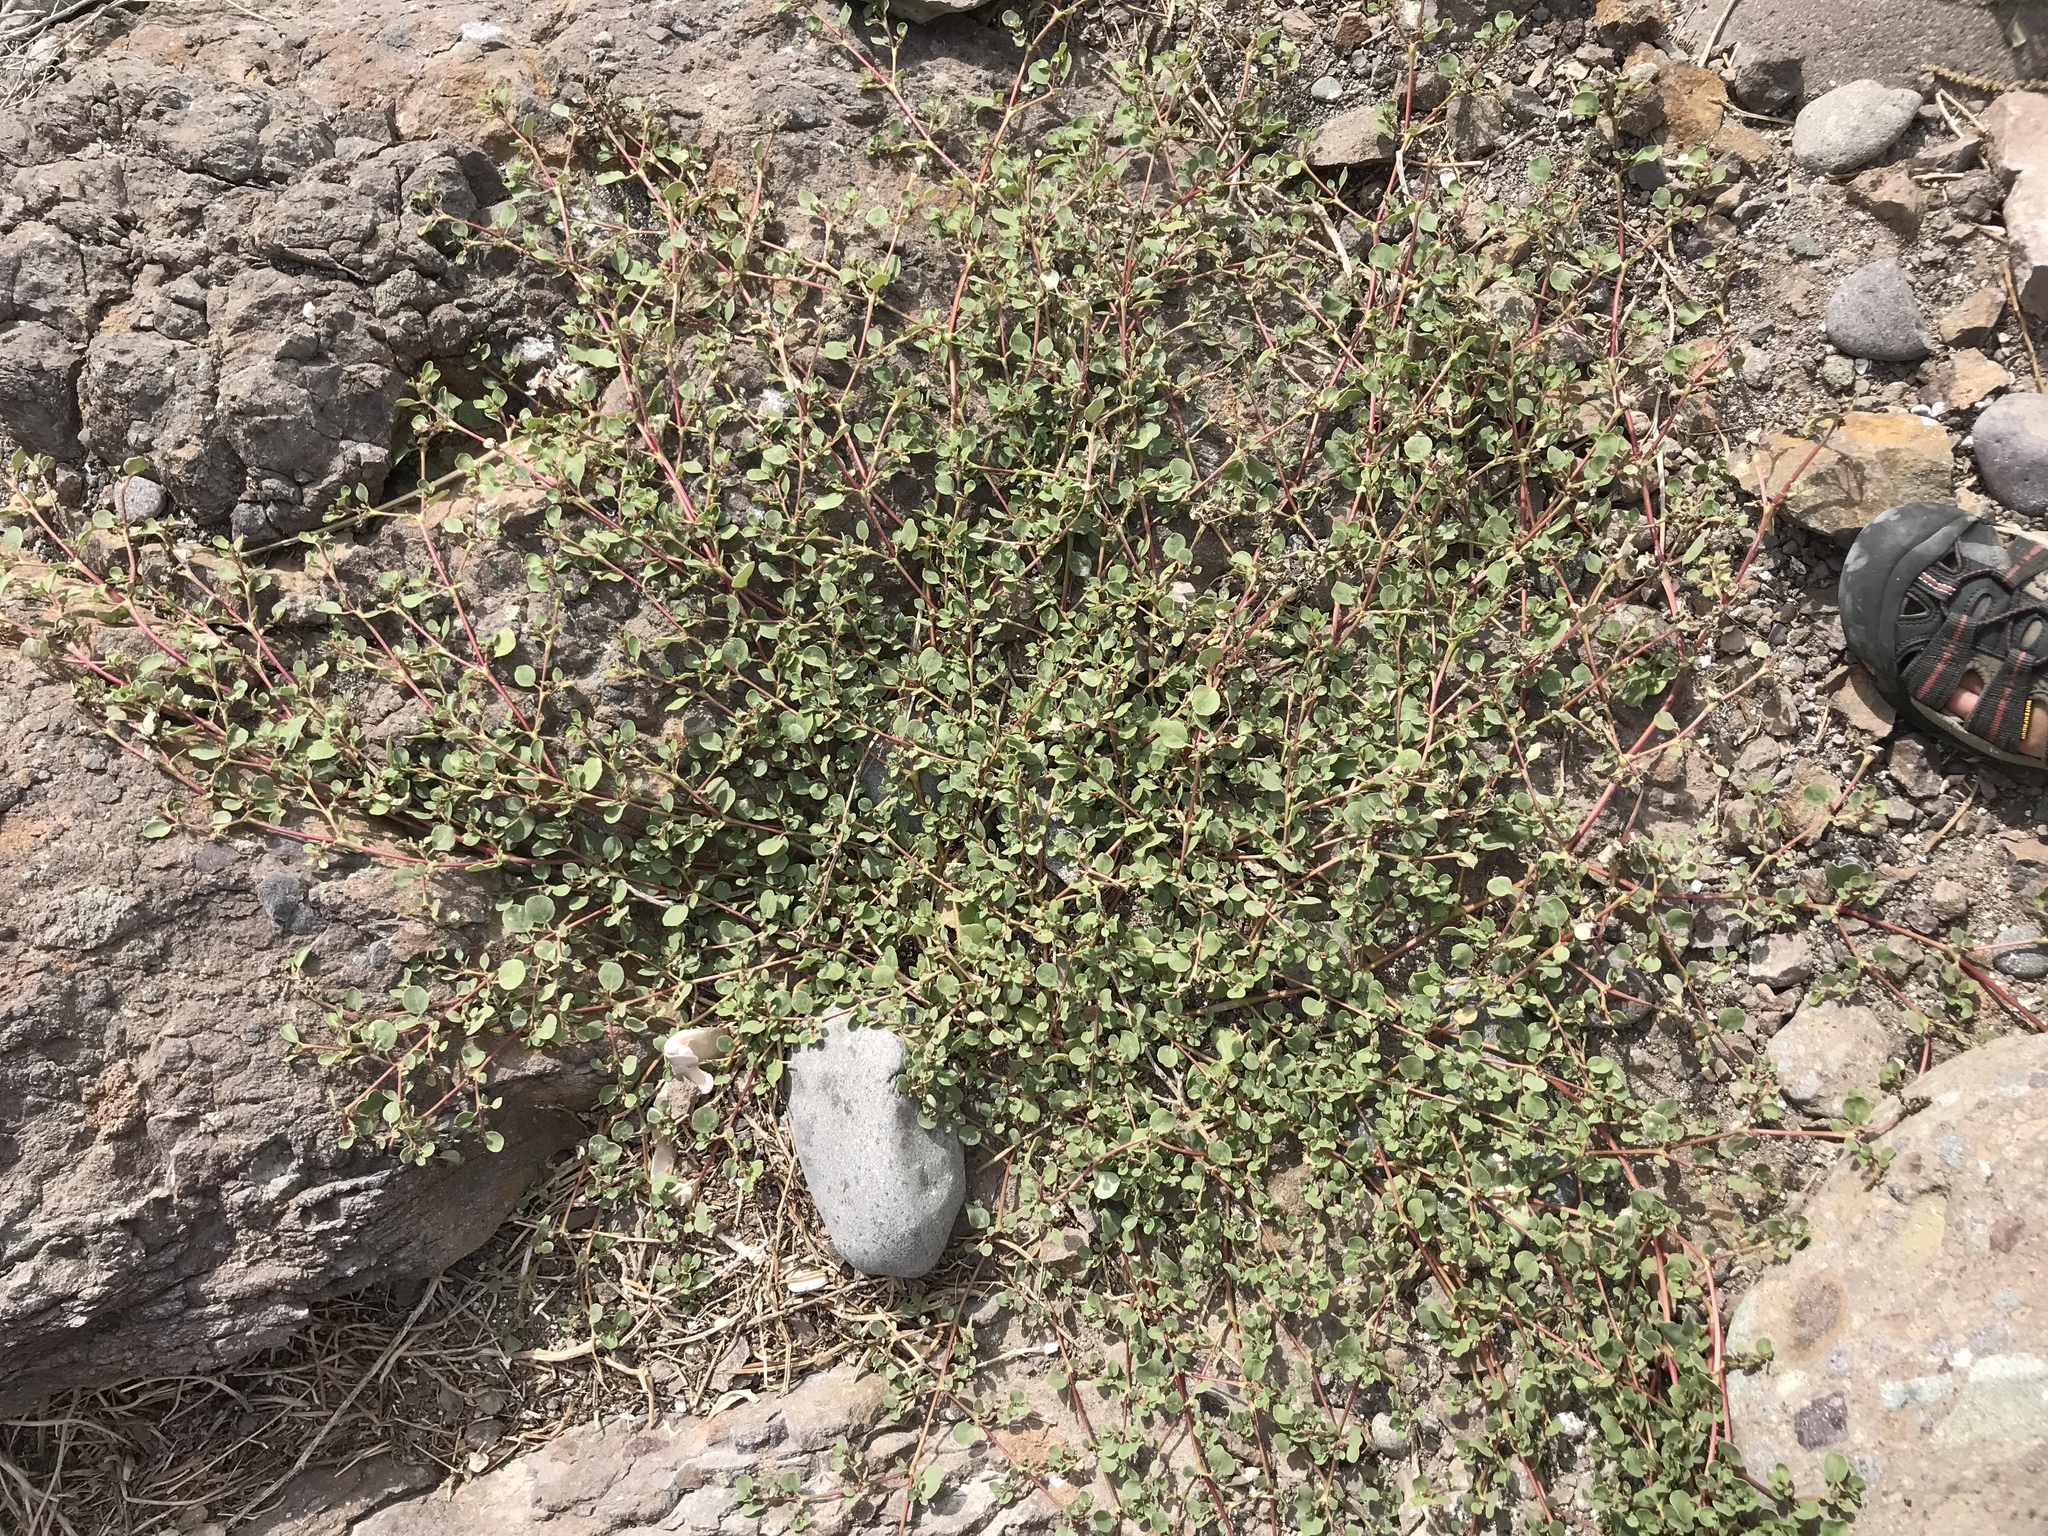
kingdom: Plantae
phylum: Tracheophyta
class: Magnoliopsida
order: Caryophyllales
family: Aizoaceae
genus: Trianthema
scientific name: Trianthema portulacastrum
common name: Desert horsepurslane
